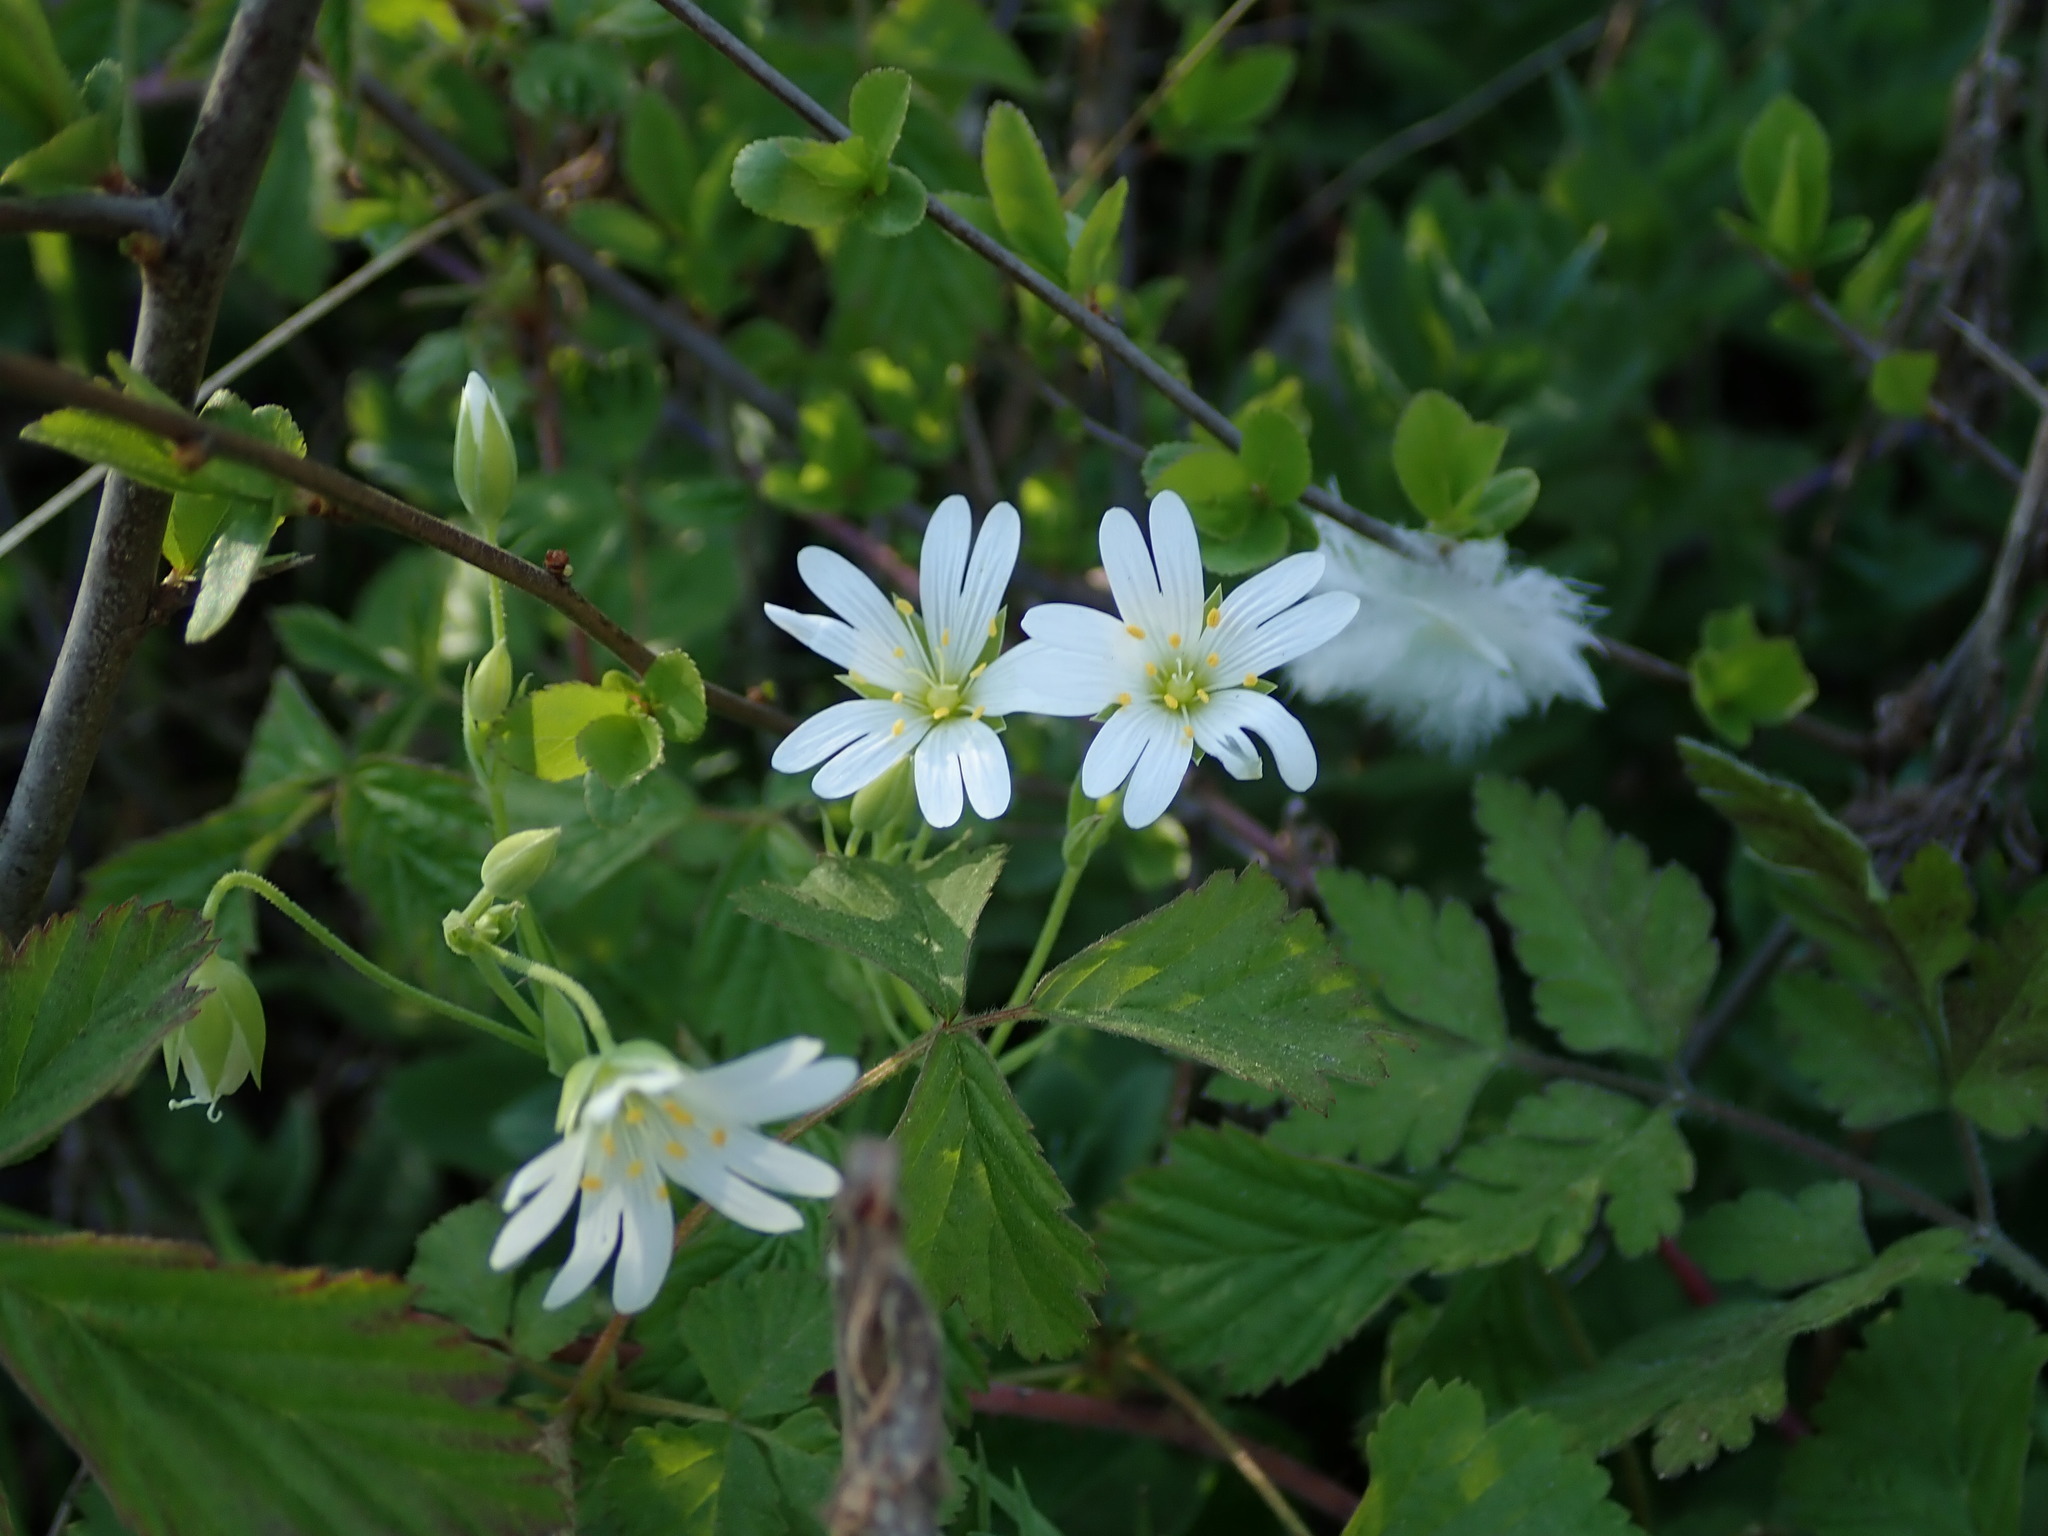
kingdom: Plantae
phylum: Tracheophyta
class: Magnoliopsida
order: Caryophyllales
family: Caryophyllaceae
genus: Rabelera
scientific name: Rabelera holostea
